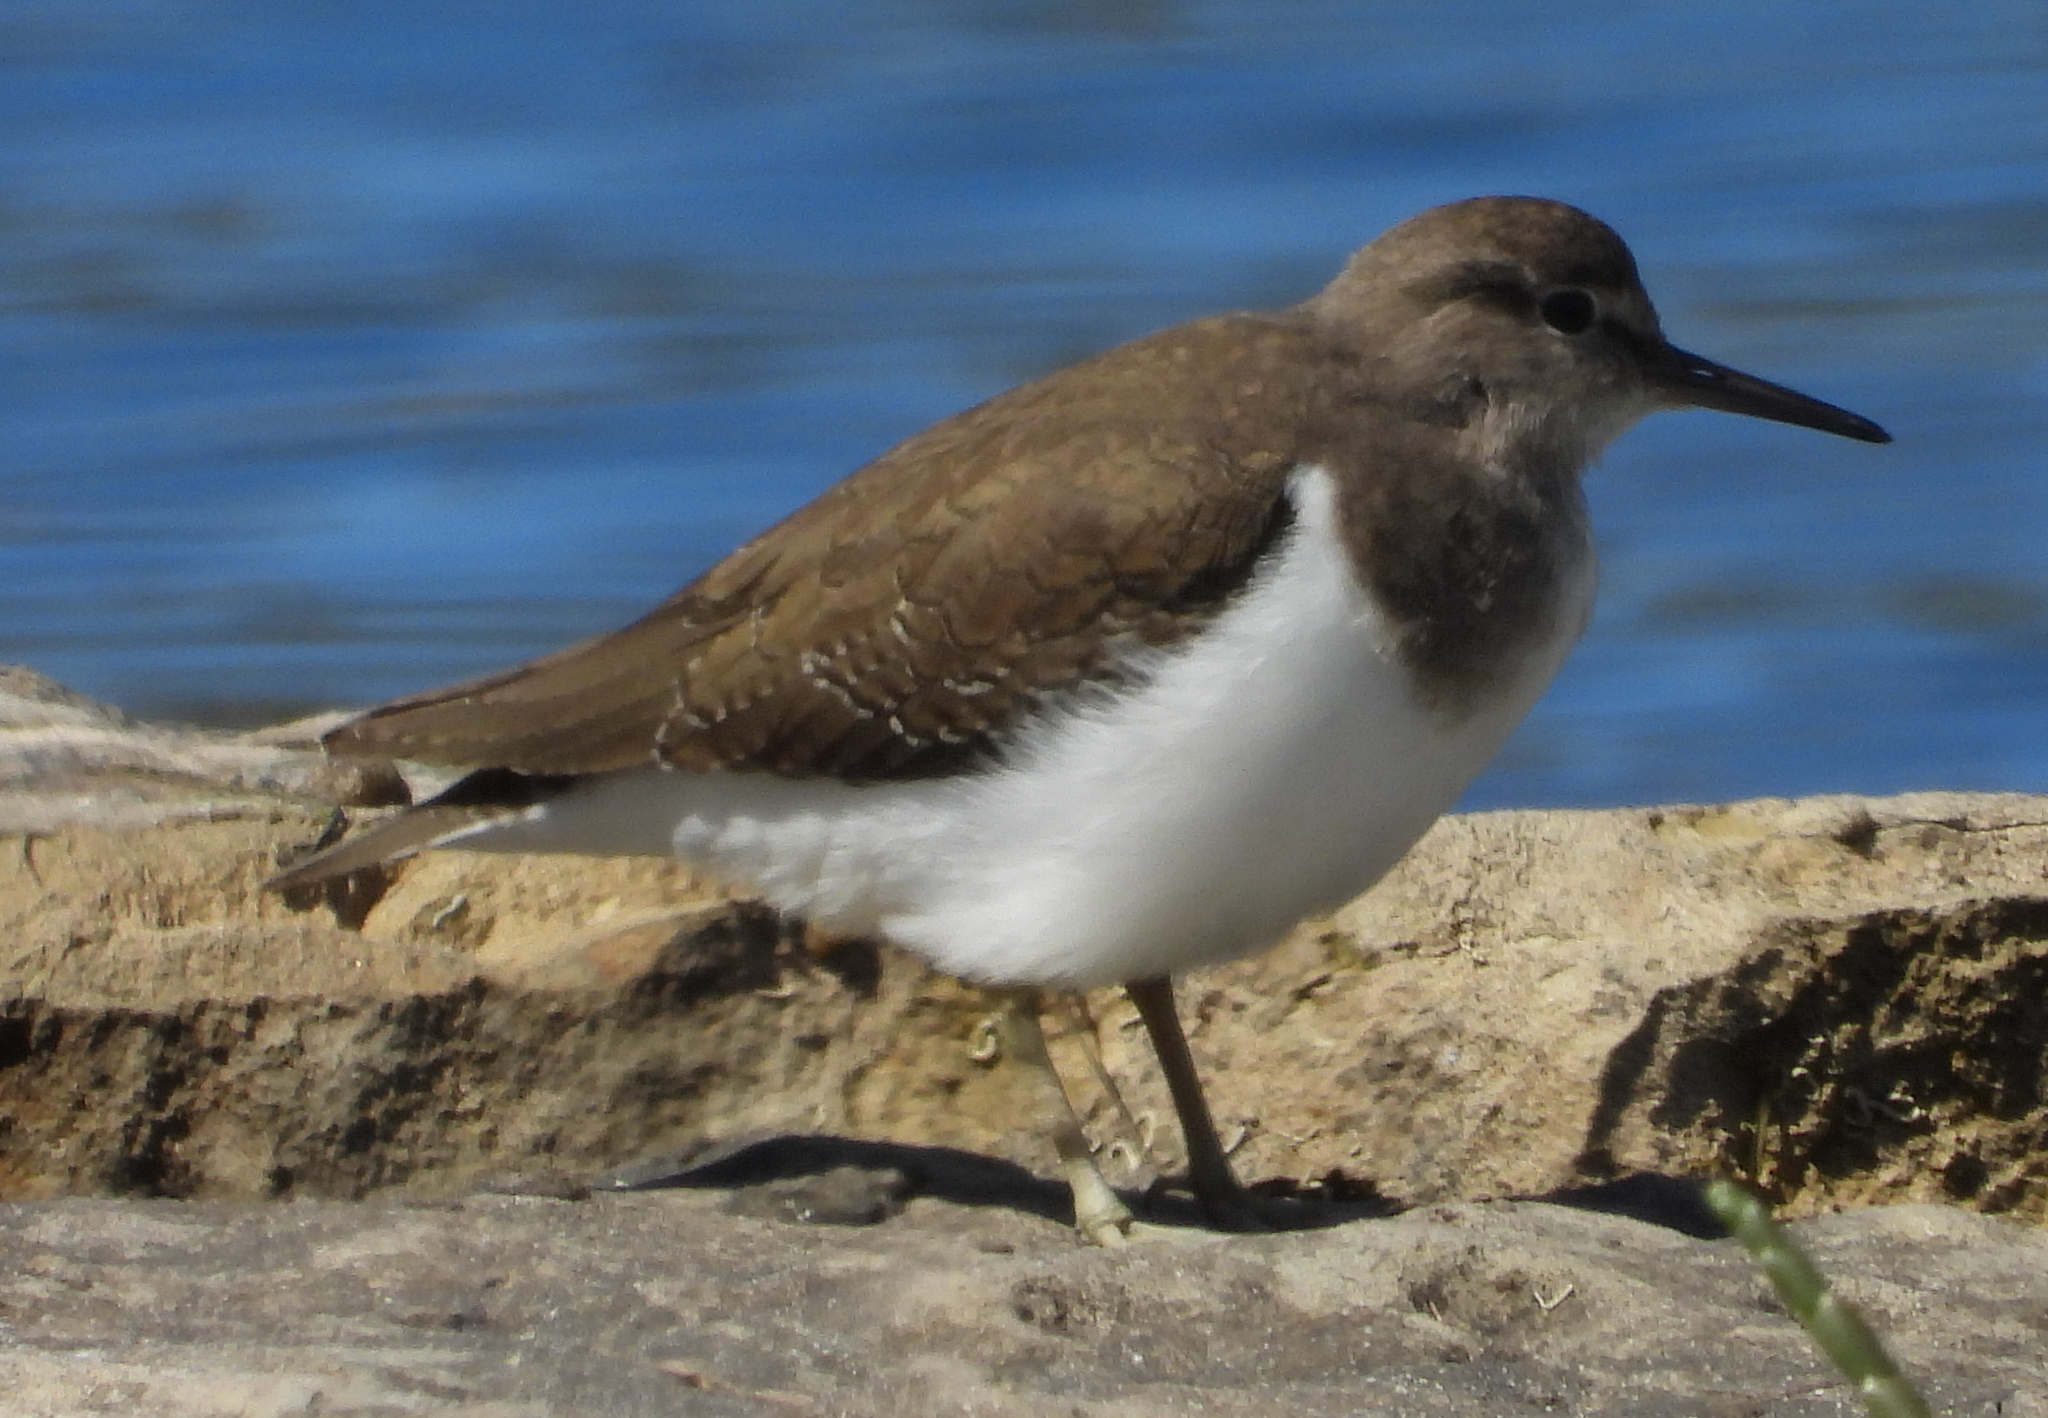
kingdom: Animalia
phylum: Chordata
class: Aves
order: Charadriiformes
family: Scolopacidae
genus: Actitis
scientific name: Actitis hypoleucos
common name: Common sandpiper
